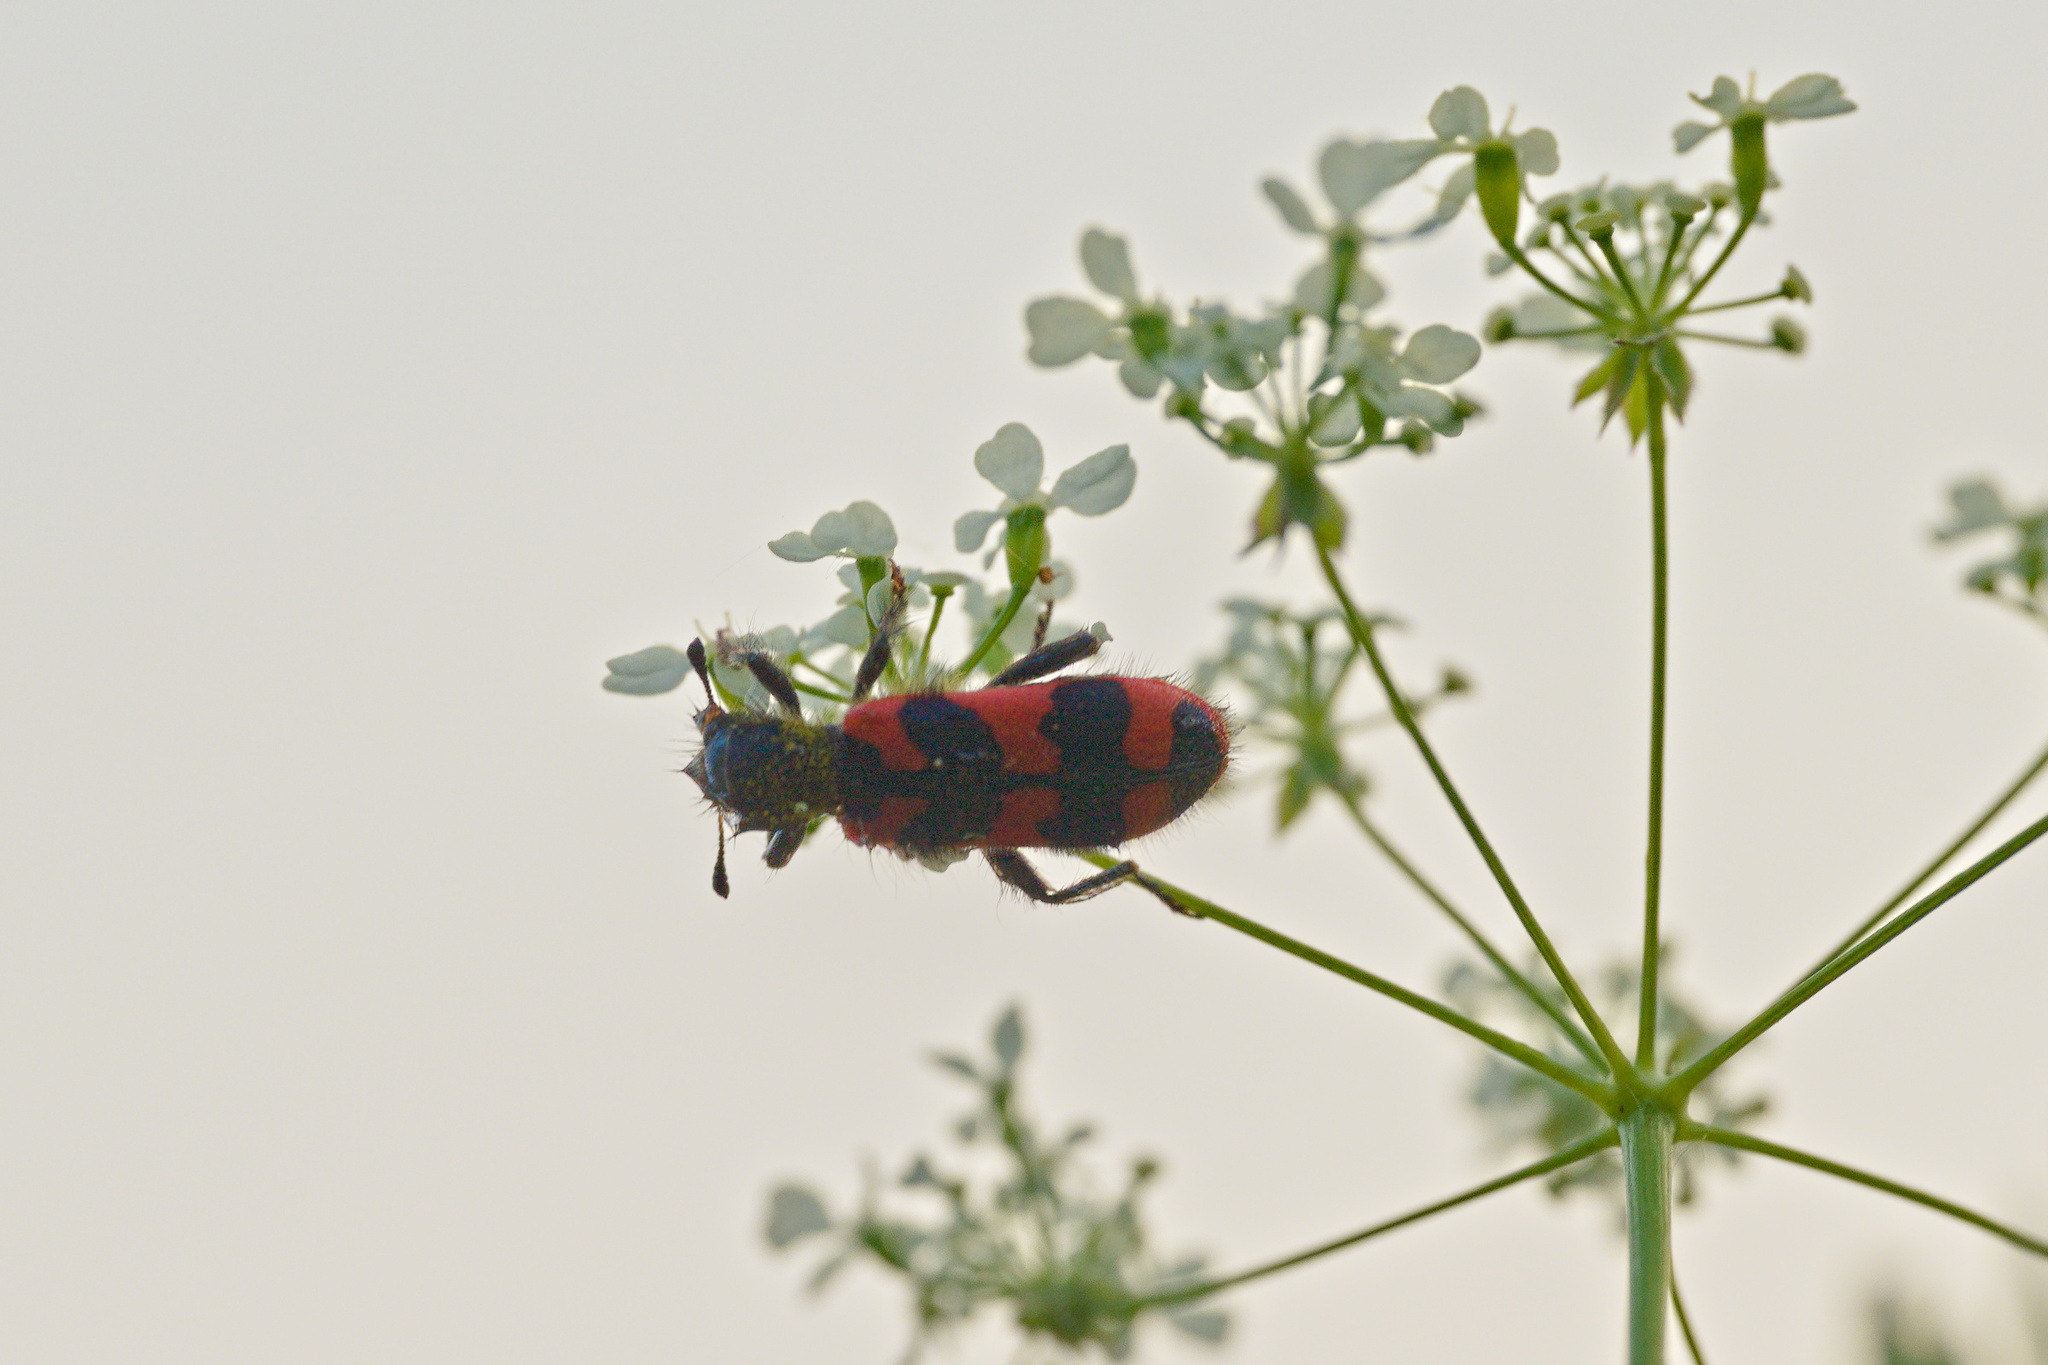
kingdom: Animalia
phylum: Arthropoda
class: Insecta
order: Coleoptera
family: Cleridae
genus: Trichodes
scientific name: Trichodes alvearius
